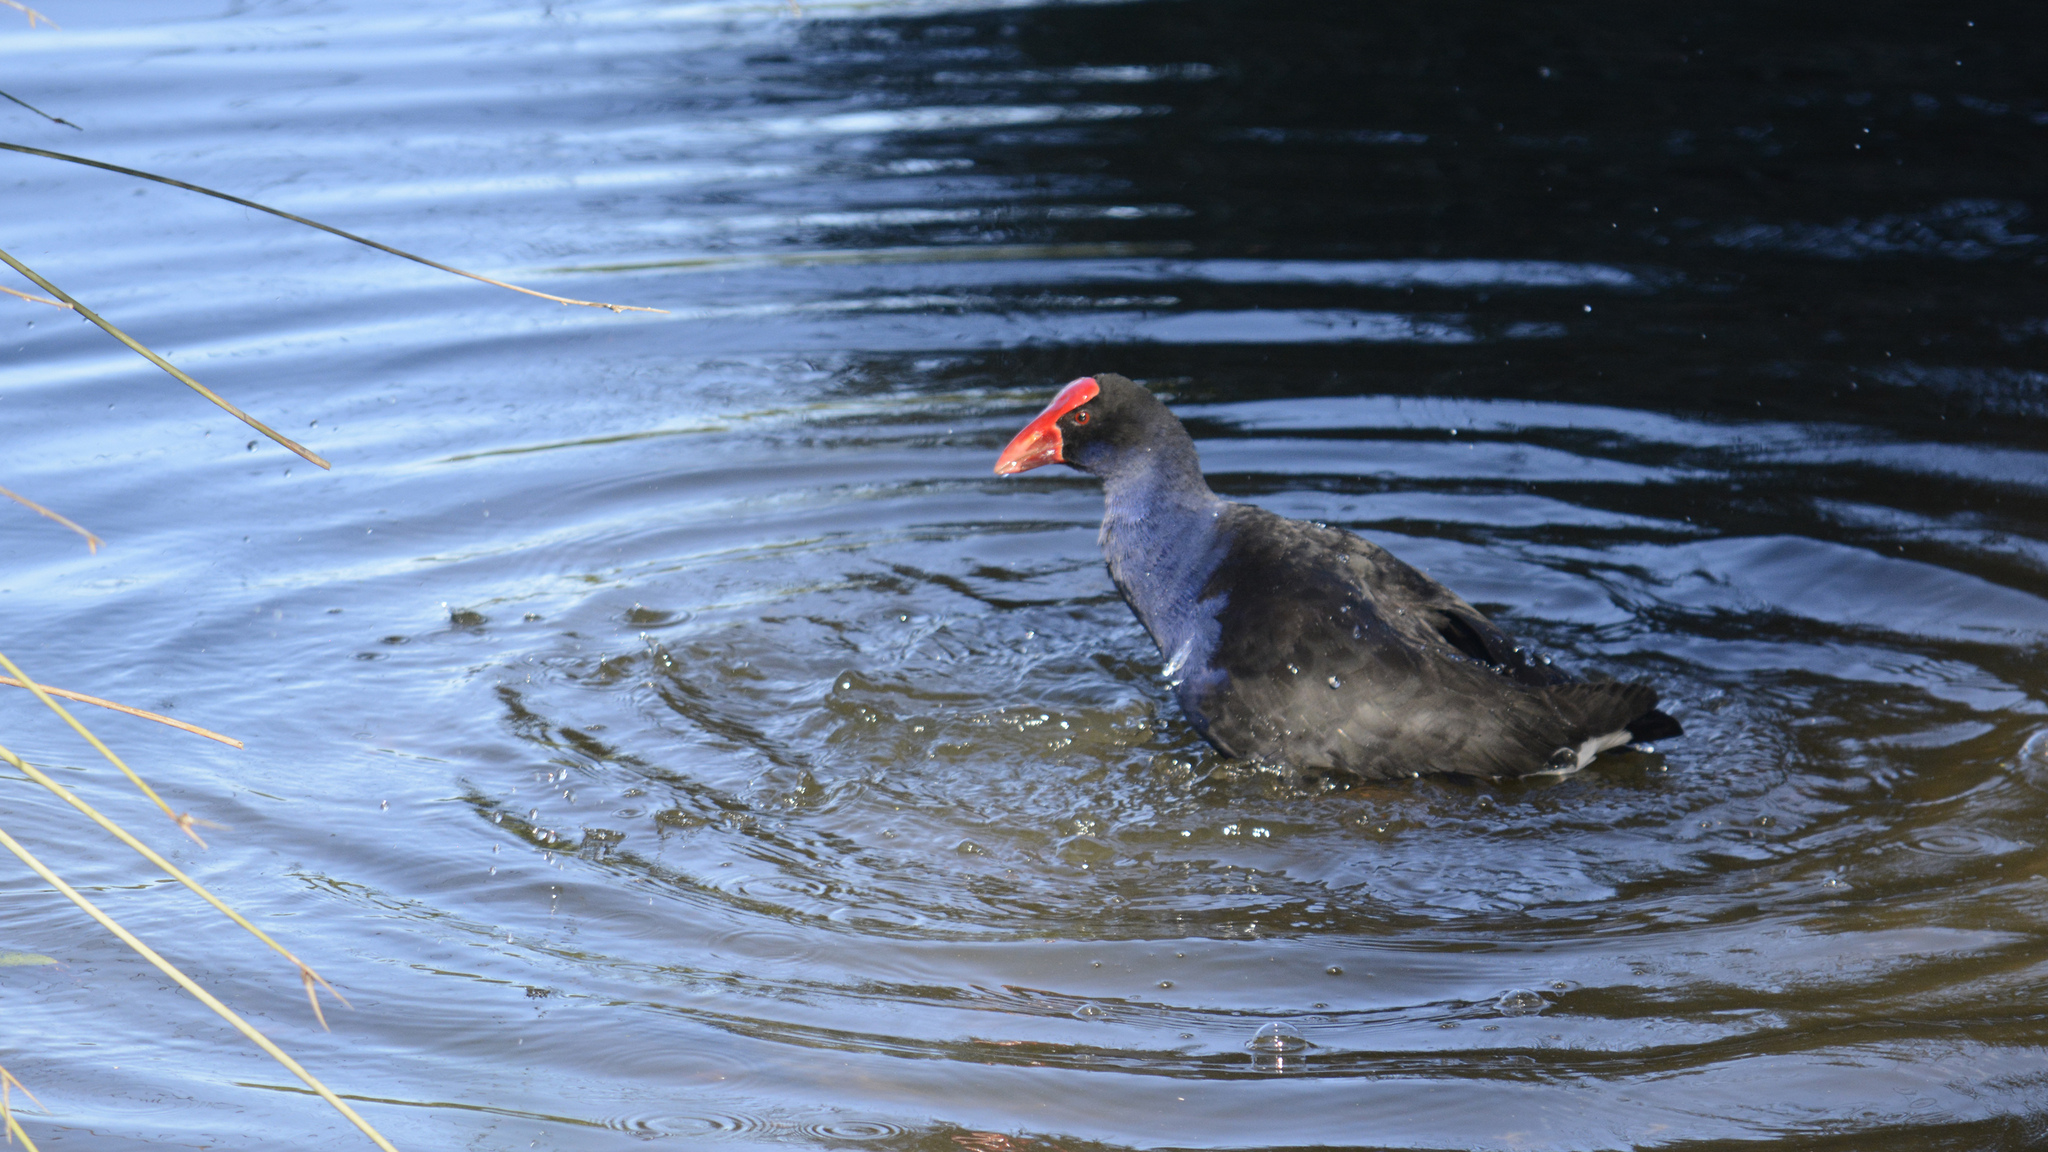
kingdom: Animalia
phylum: Chordata
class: Aves
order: Gruiformes
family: Rallidae
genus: Porphyrio
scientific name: Porphyrio melanotus
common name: Australasian swamphen
